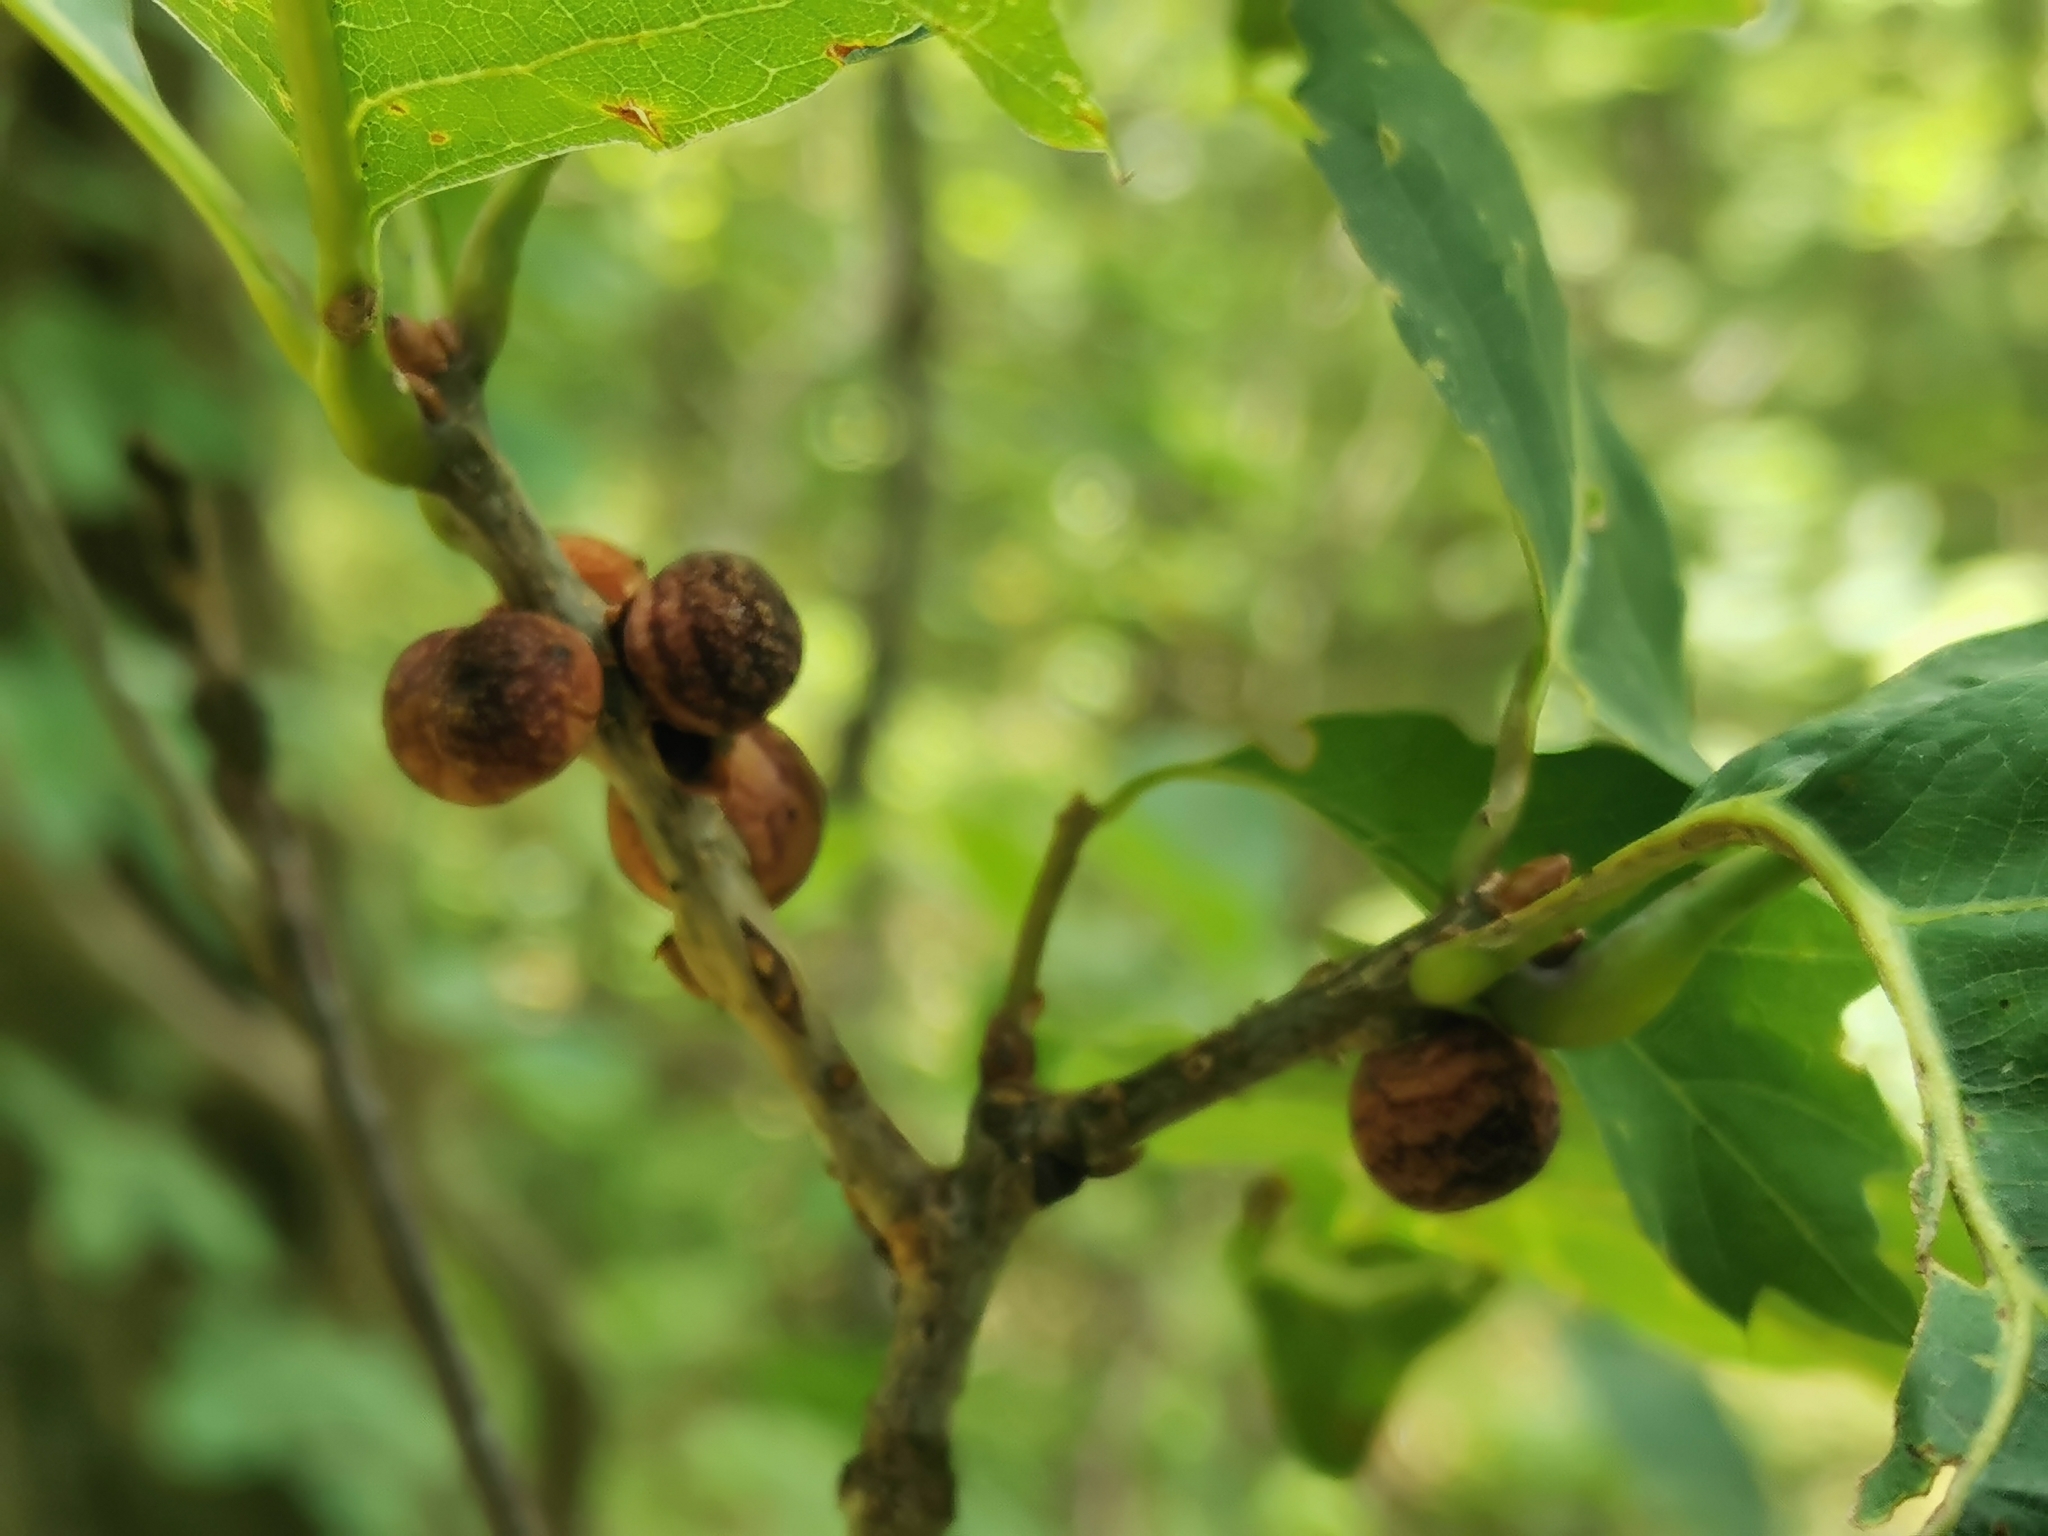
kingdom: Animalia
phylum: Arthropoda
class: Insecta
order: Hymenoptera
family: Cynipidae
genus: Kokkocynips
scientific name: Kokkocynips imbricariae
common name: Banded bullet gall wasp
